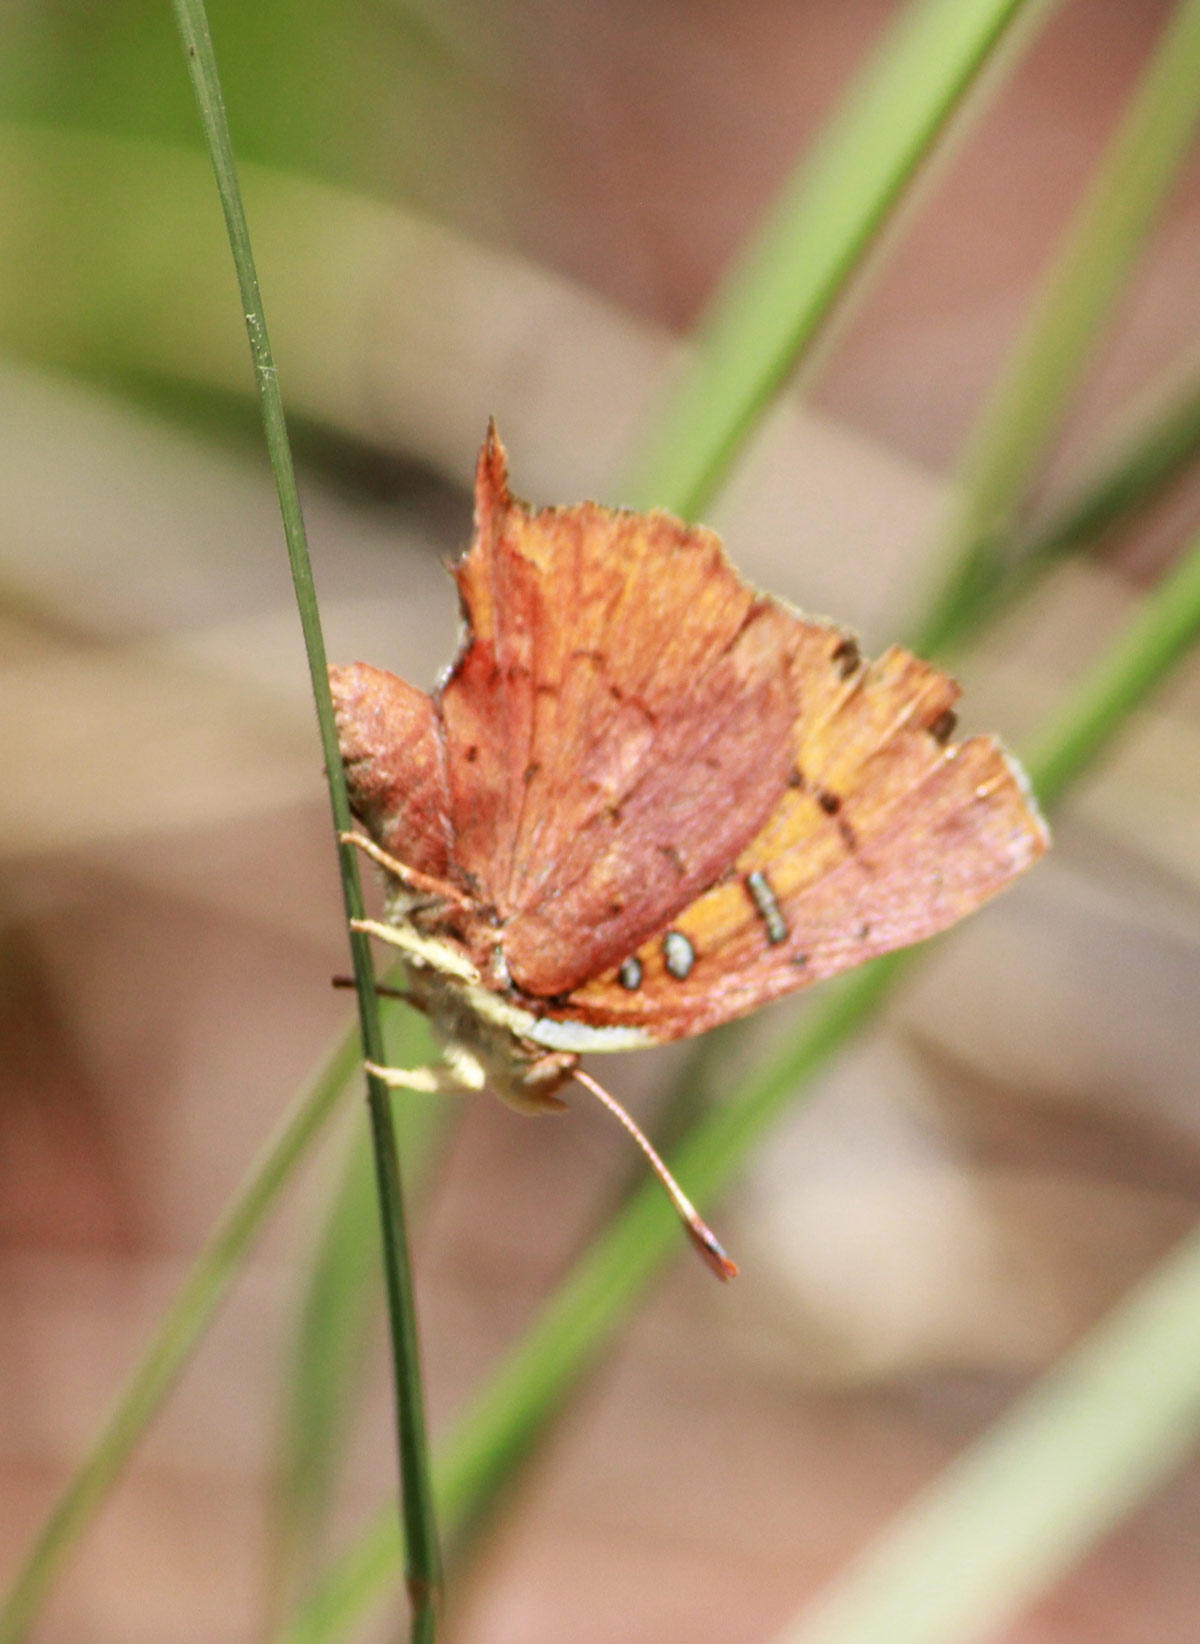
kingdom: Animalia
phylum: Arthropoda
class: Insecta
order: Lepidoptera
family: Lycaenidae
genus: Axiocerses
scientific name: Axiocerses amanga
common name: Bush scarlet
